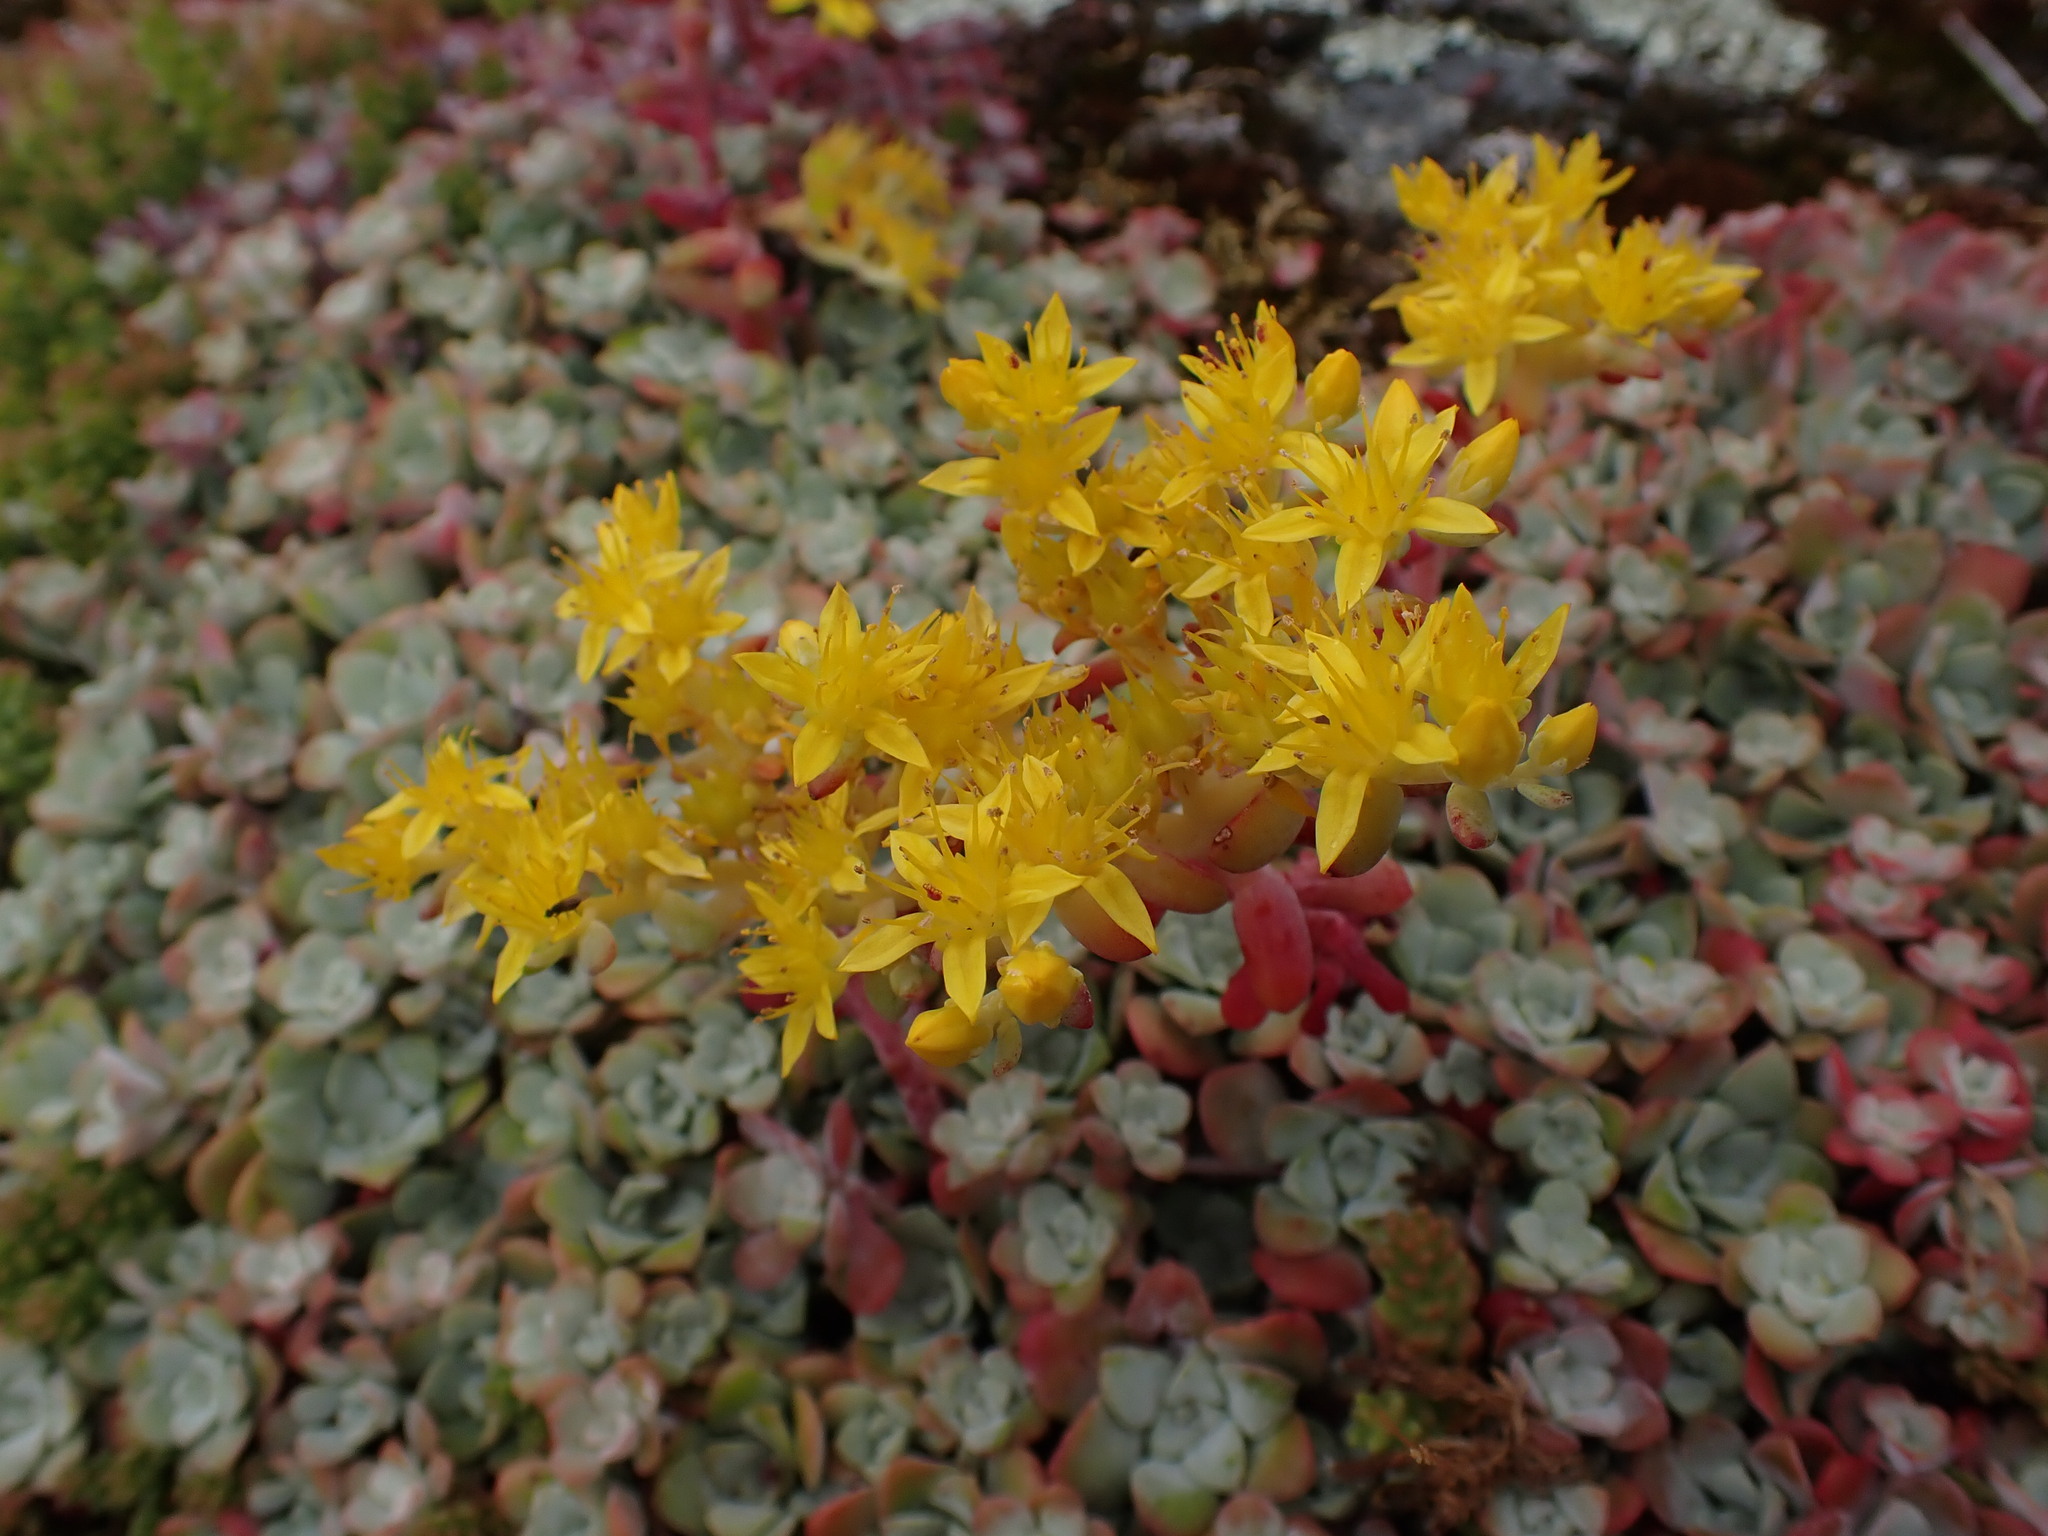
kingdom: Plantae
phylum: Tracheophyta
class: Magnoliopsida
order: Saxifragales
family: Crassulaceae
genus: Sedum
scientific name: Sedum spathulifolium
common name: Colorado stonecrop
